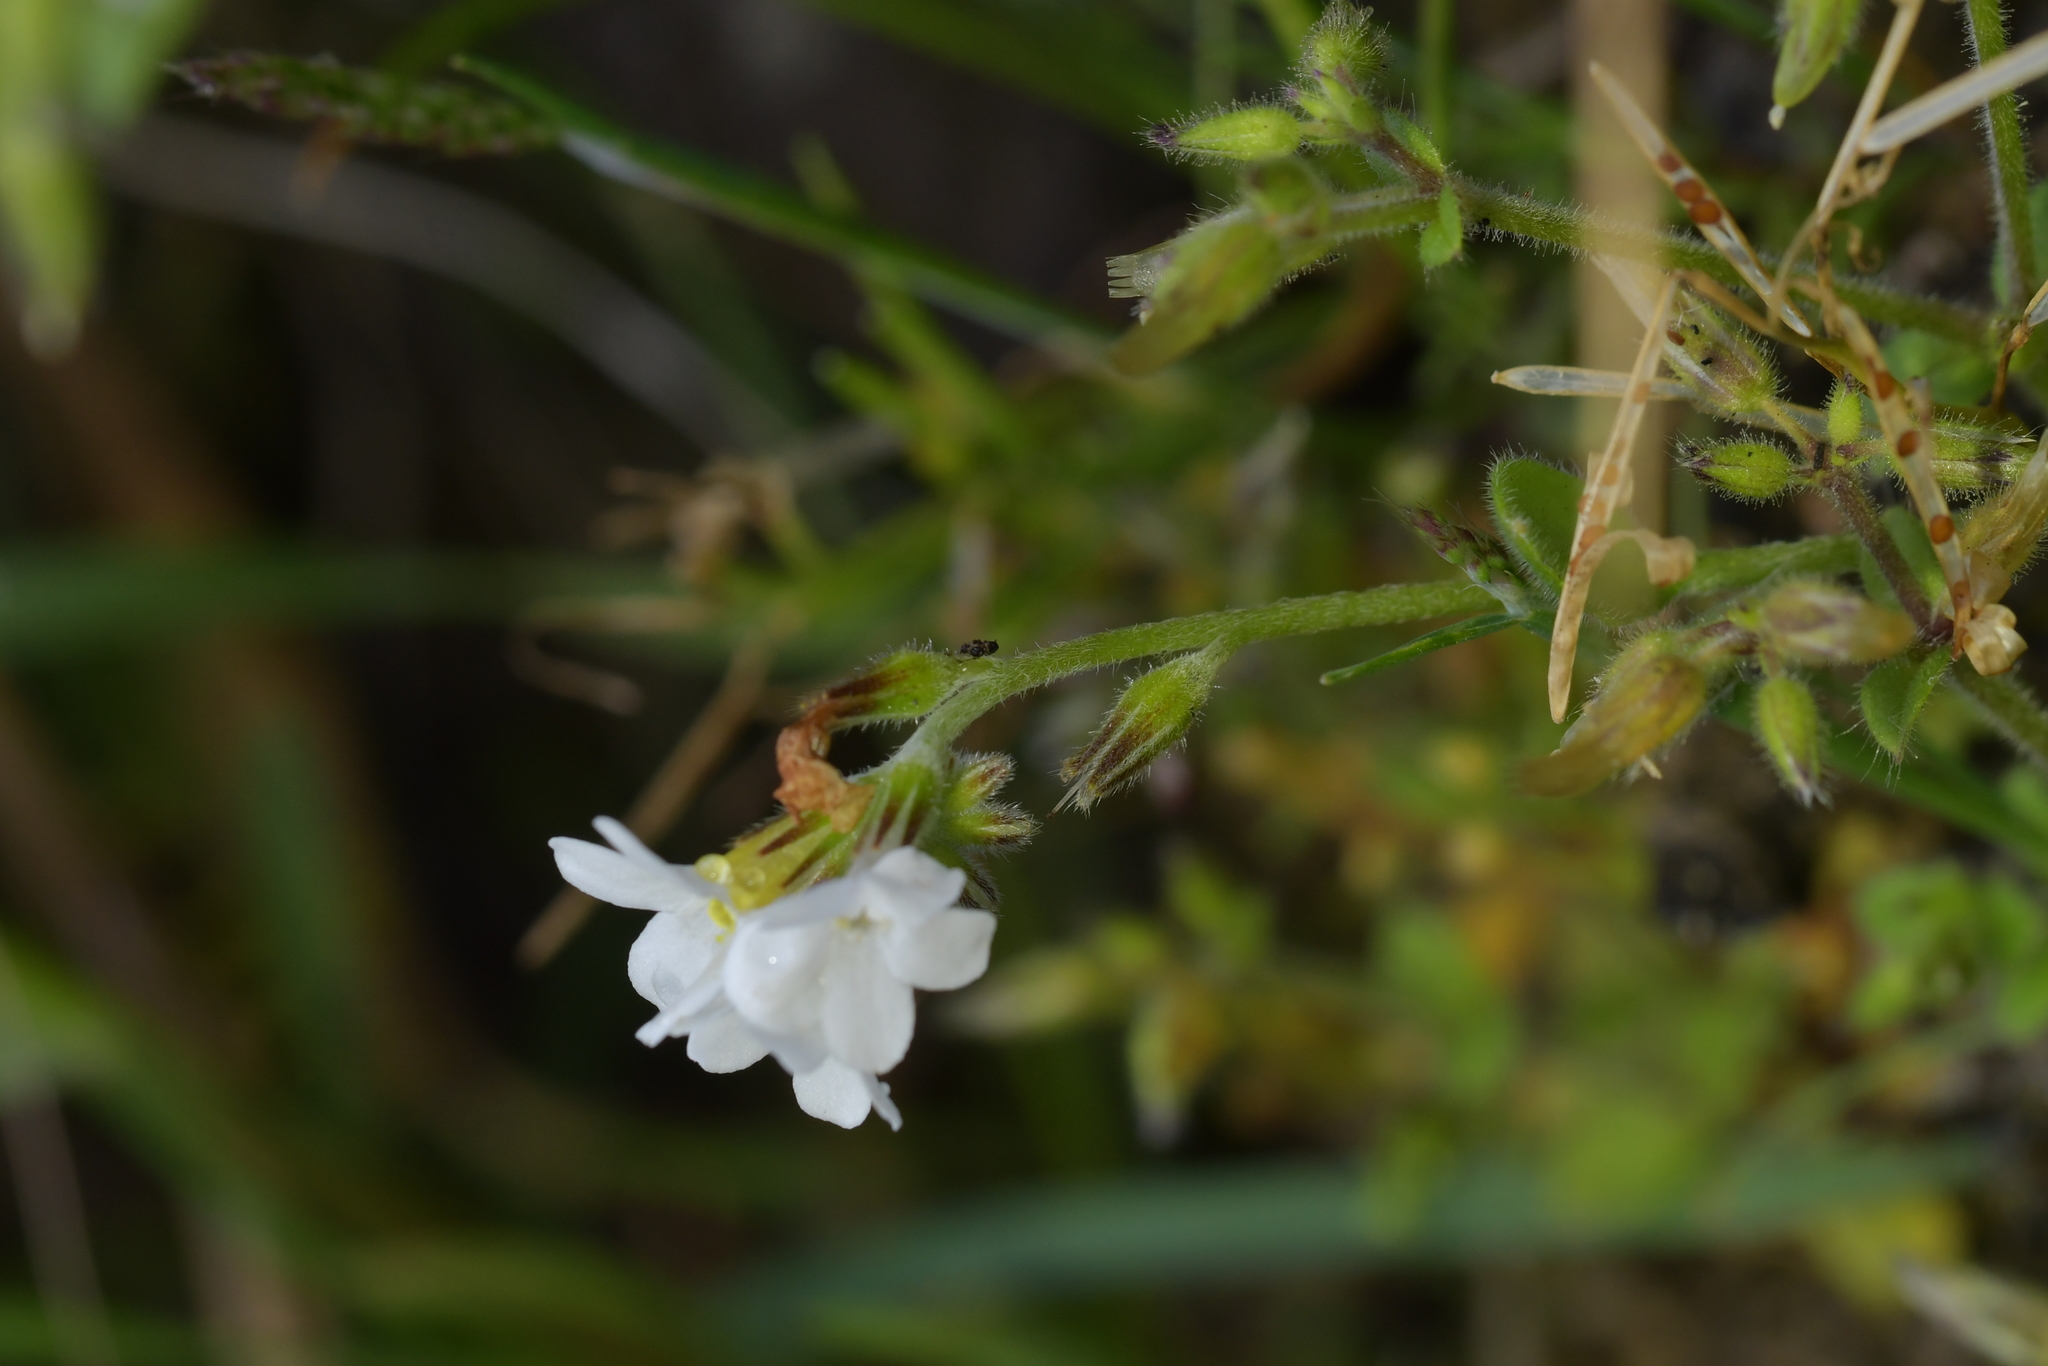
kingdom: Plantae
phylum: Tracheophyta
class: Magnoliopsida
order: Boraginales
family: Boraginaceae
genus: Myosotis
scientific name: Myosotis australis
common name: Australian forget-me-not
